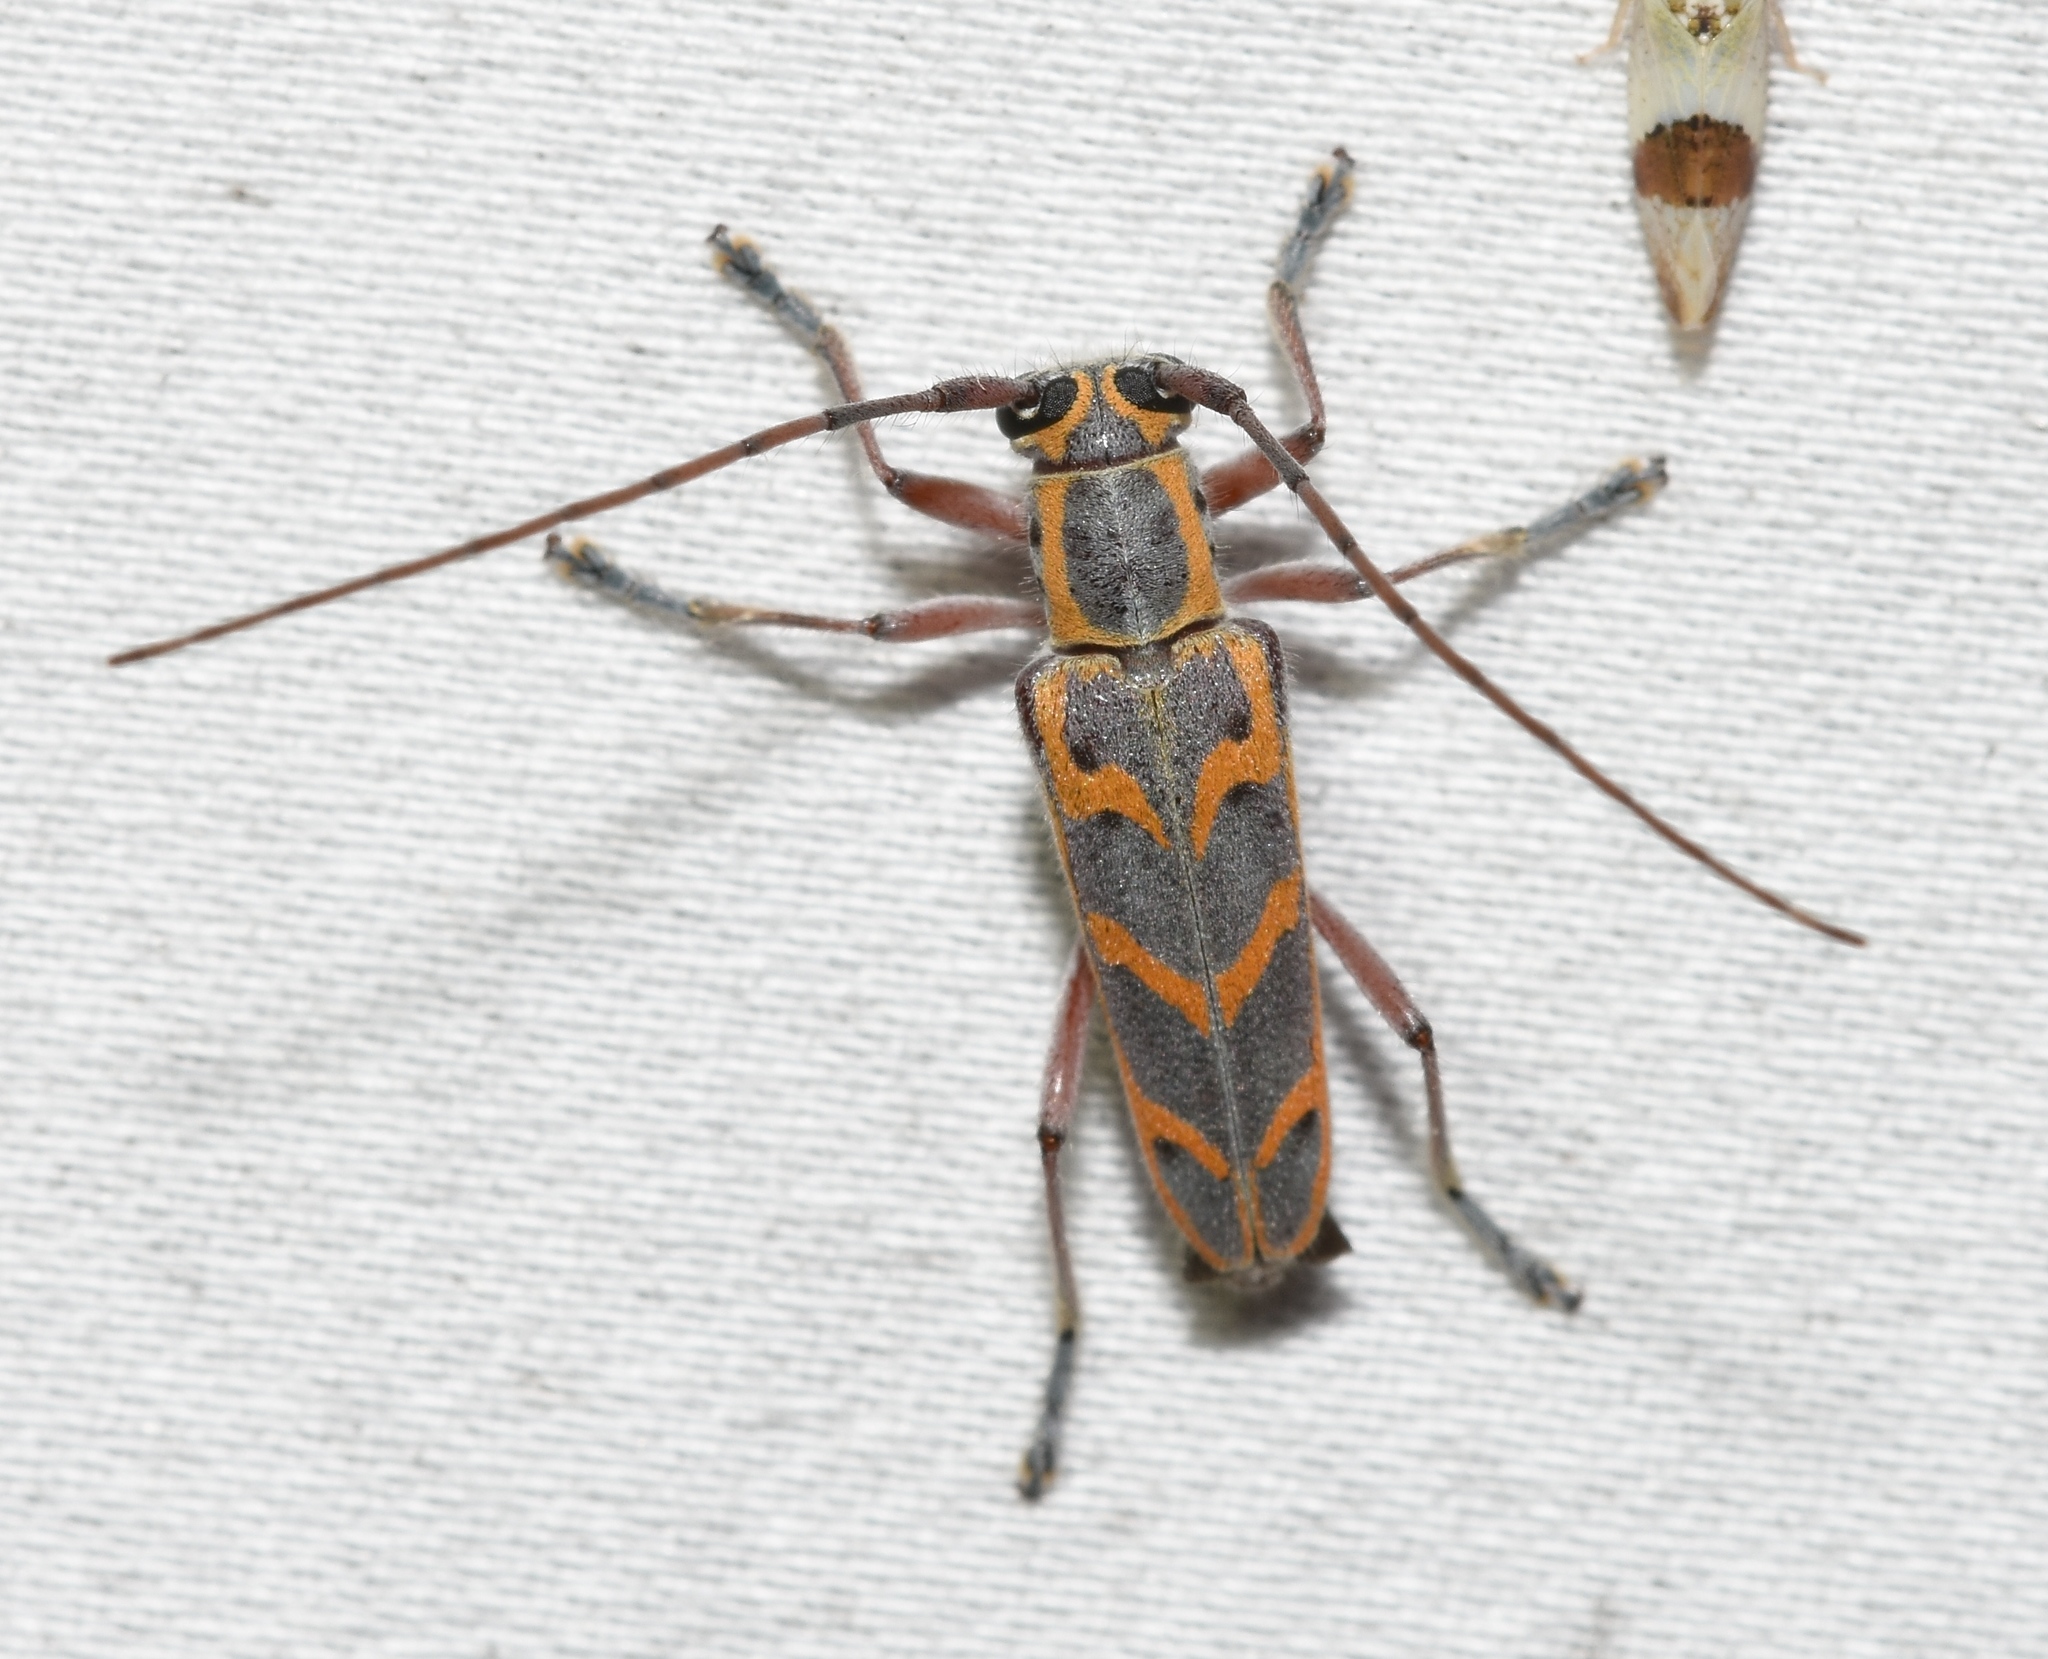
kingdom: Animalia
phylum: Arthropoda
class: Insecta
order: Coleoptera
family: Cerambycidae
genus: Saperda
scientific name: Saperda tridentata
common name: Elm borer
